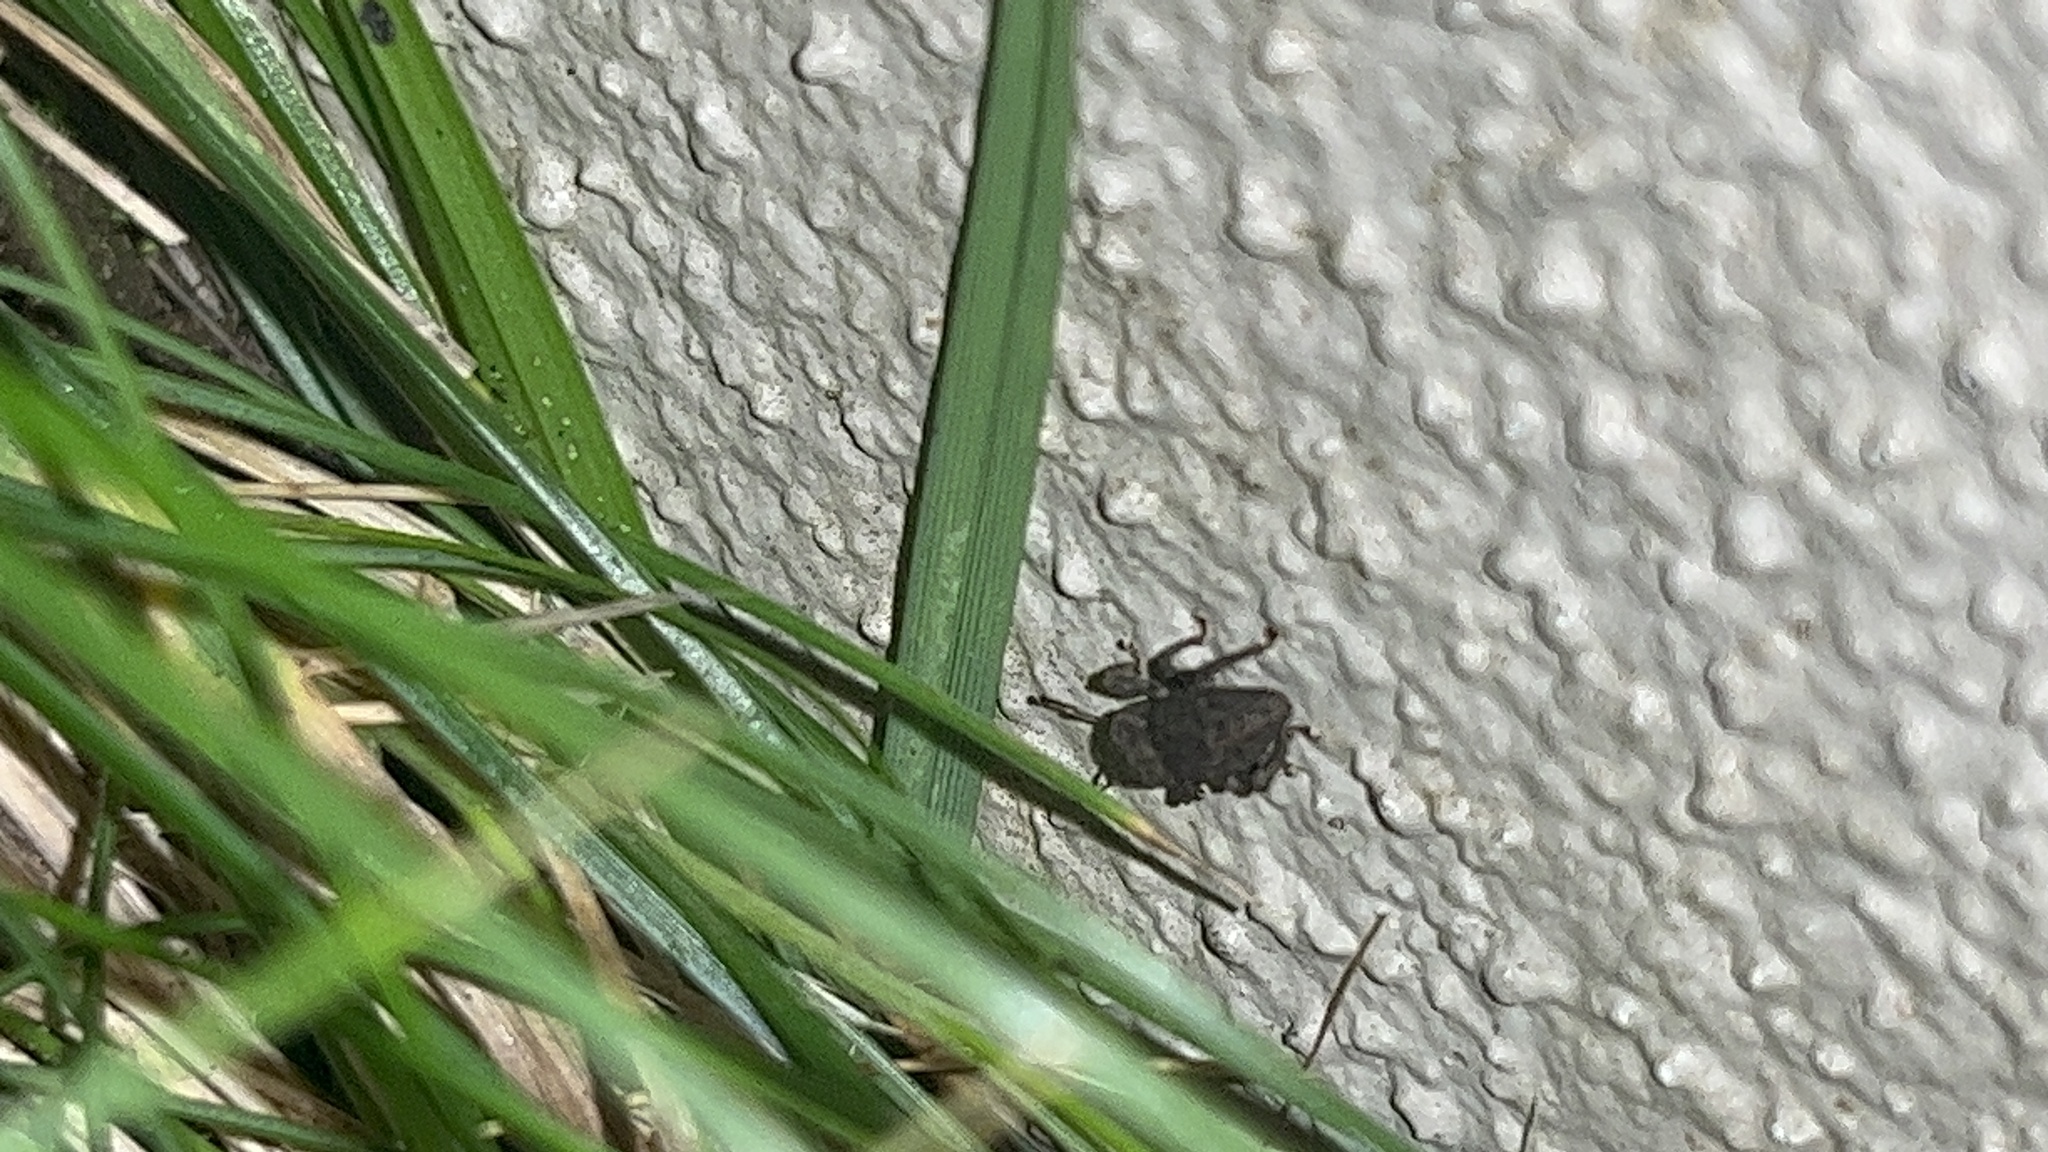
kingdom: Animalia
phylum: Arthropoda
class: Insecta
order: Coleoptera
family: Curculionidae
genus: Mandalotus
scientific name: Mandalotus miricollis
